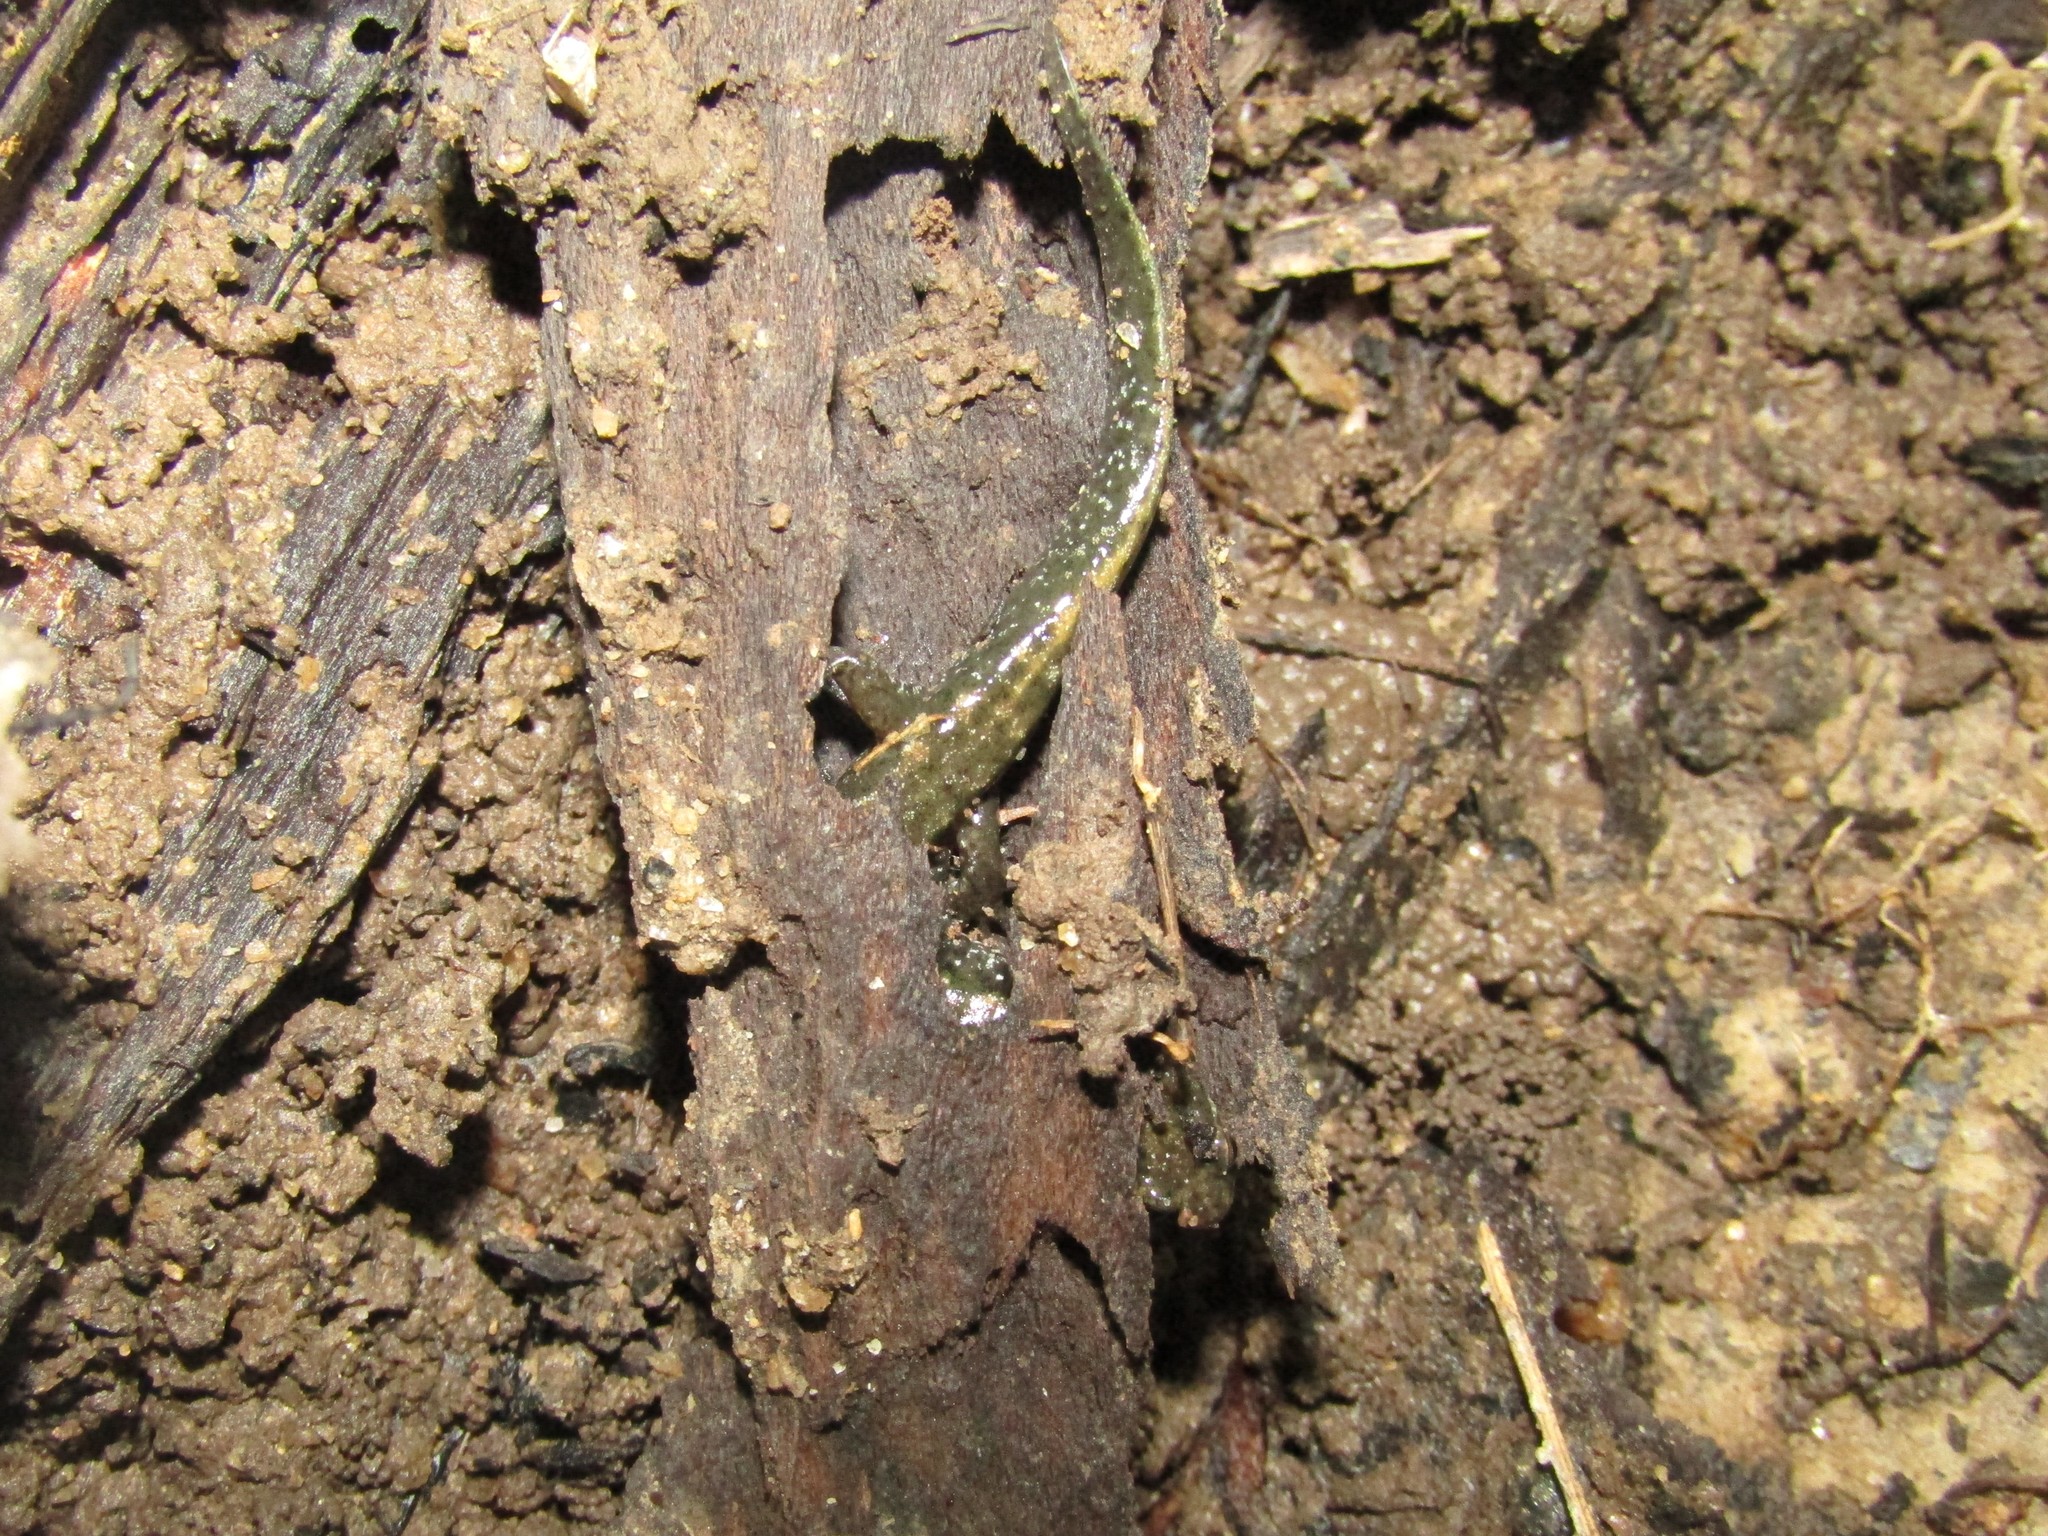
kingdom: Animalia
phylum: Chordata
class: Amphibia
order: Caudata
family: Plethodontidae
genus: Desmognathus
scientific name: Desmognathus
